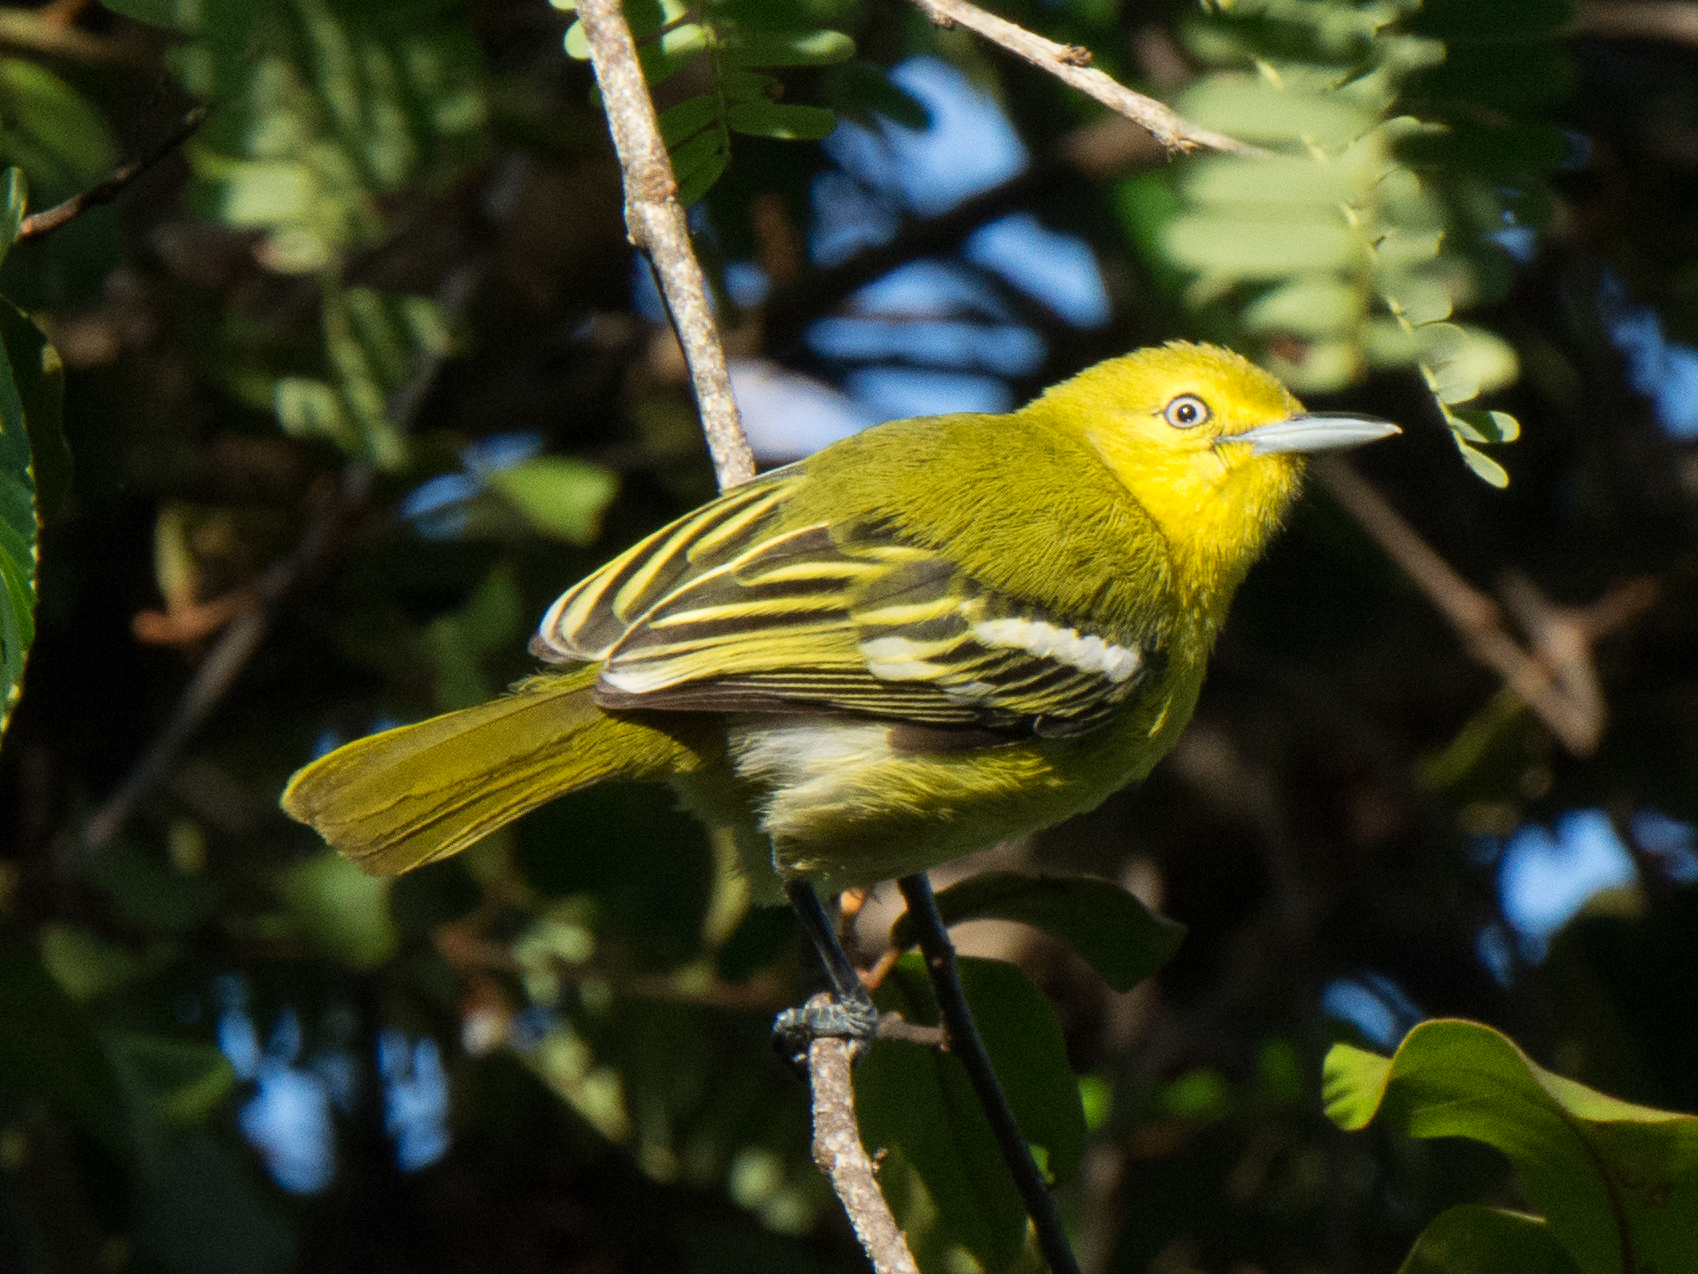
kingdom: Animalia
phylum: Chordata
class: Aves
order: Passeriformes
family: Aegithinidae
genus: Aegithina
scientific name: Aegithina tiphia
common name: Common iora
